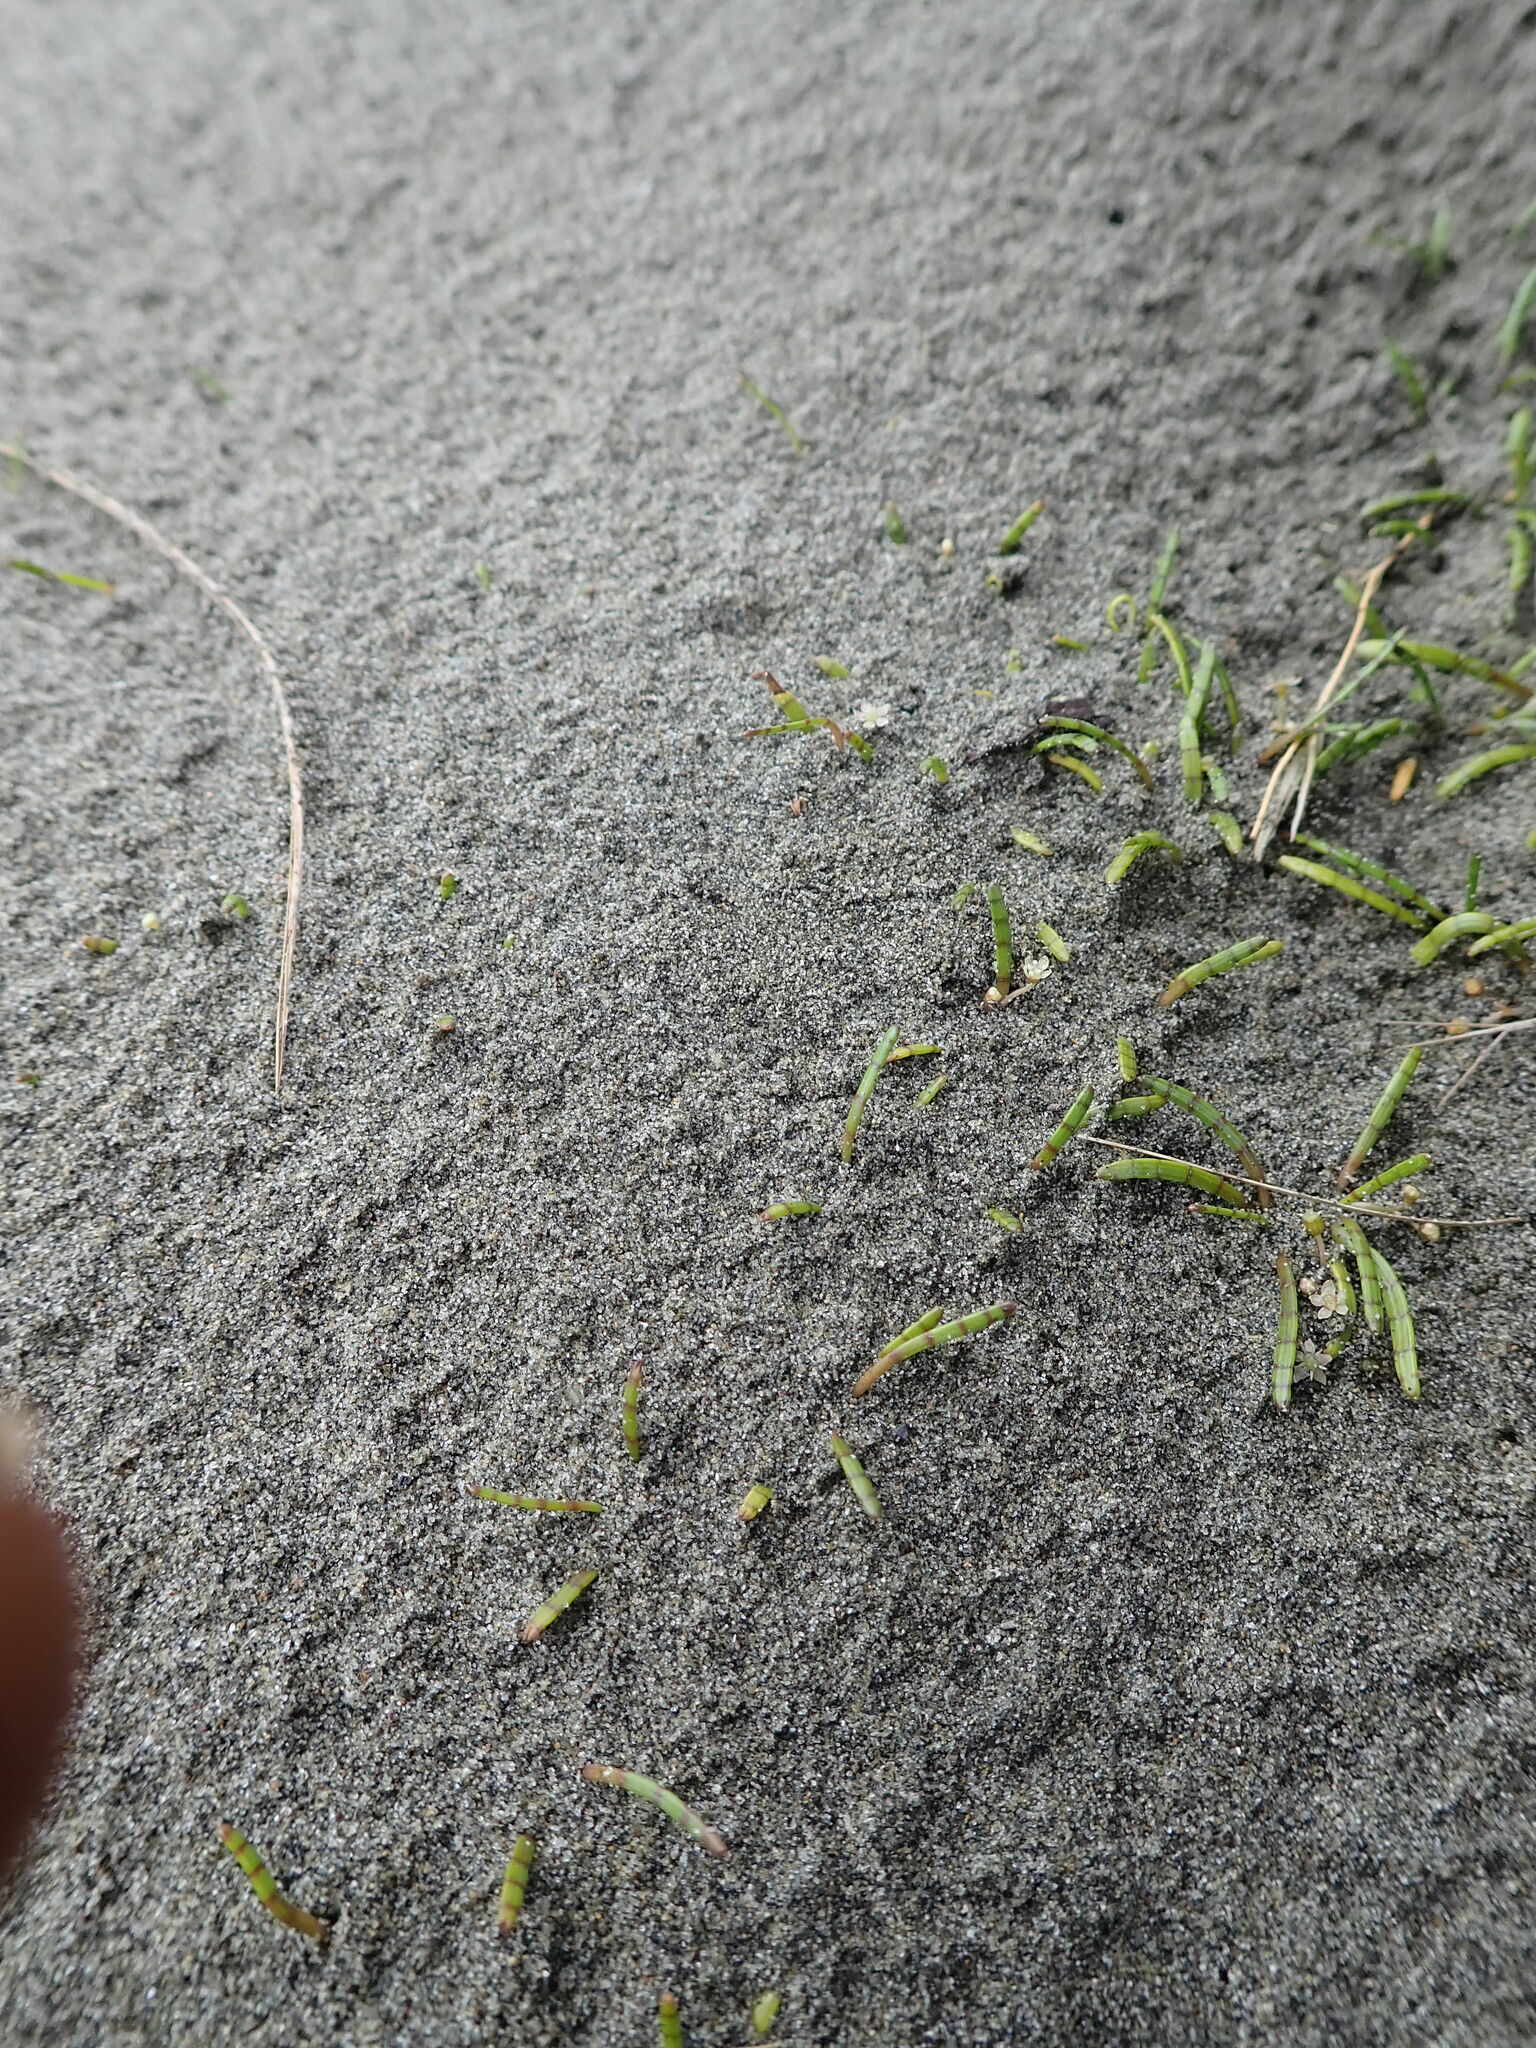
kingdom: Plantae
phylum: Tracheophyta
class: Magnoliopsida
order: Apiales
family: Apiaceae
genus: Lilaeopsis
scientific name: Lilaeopsis novae-zelandiae
